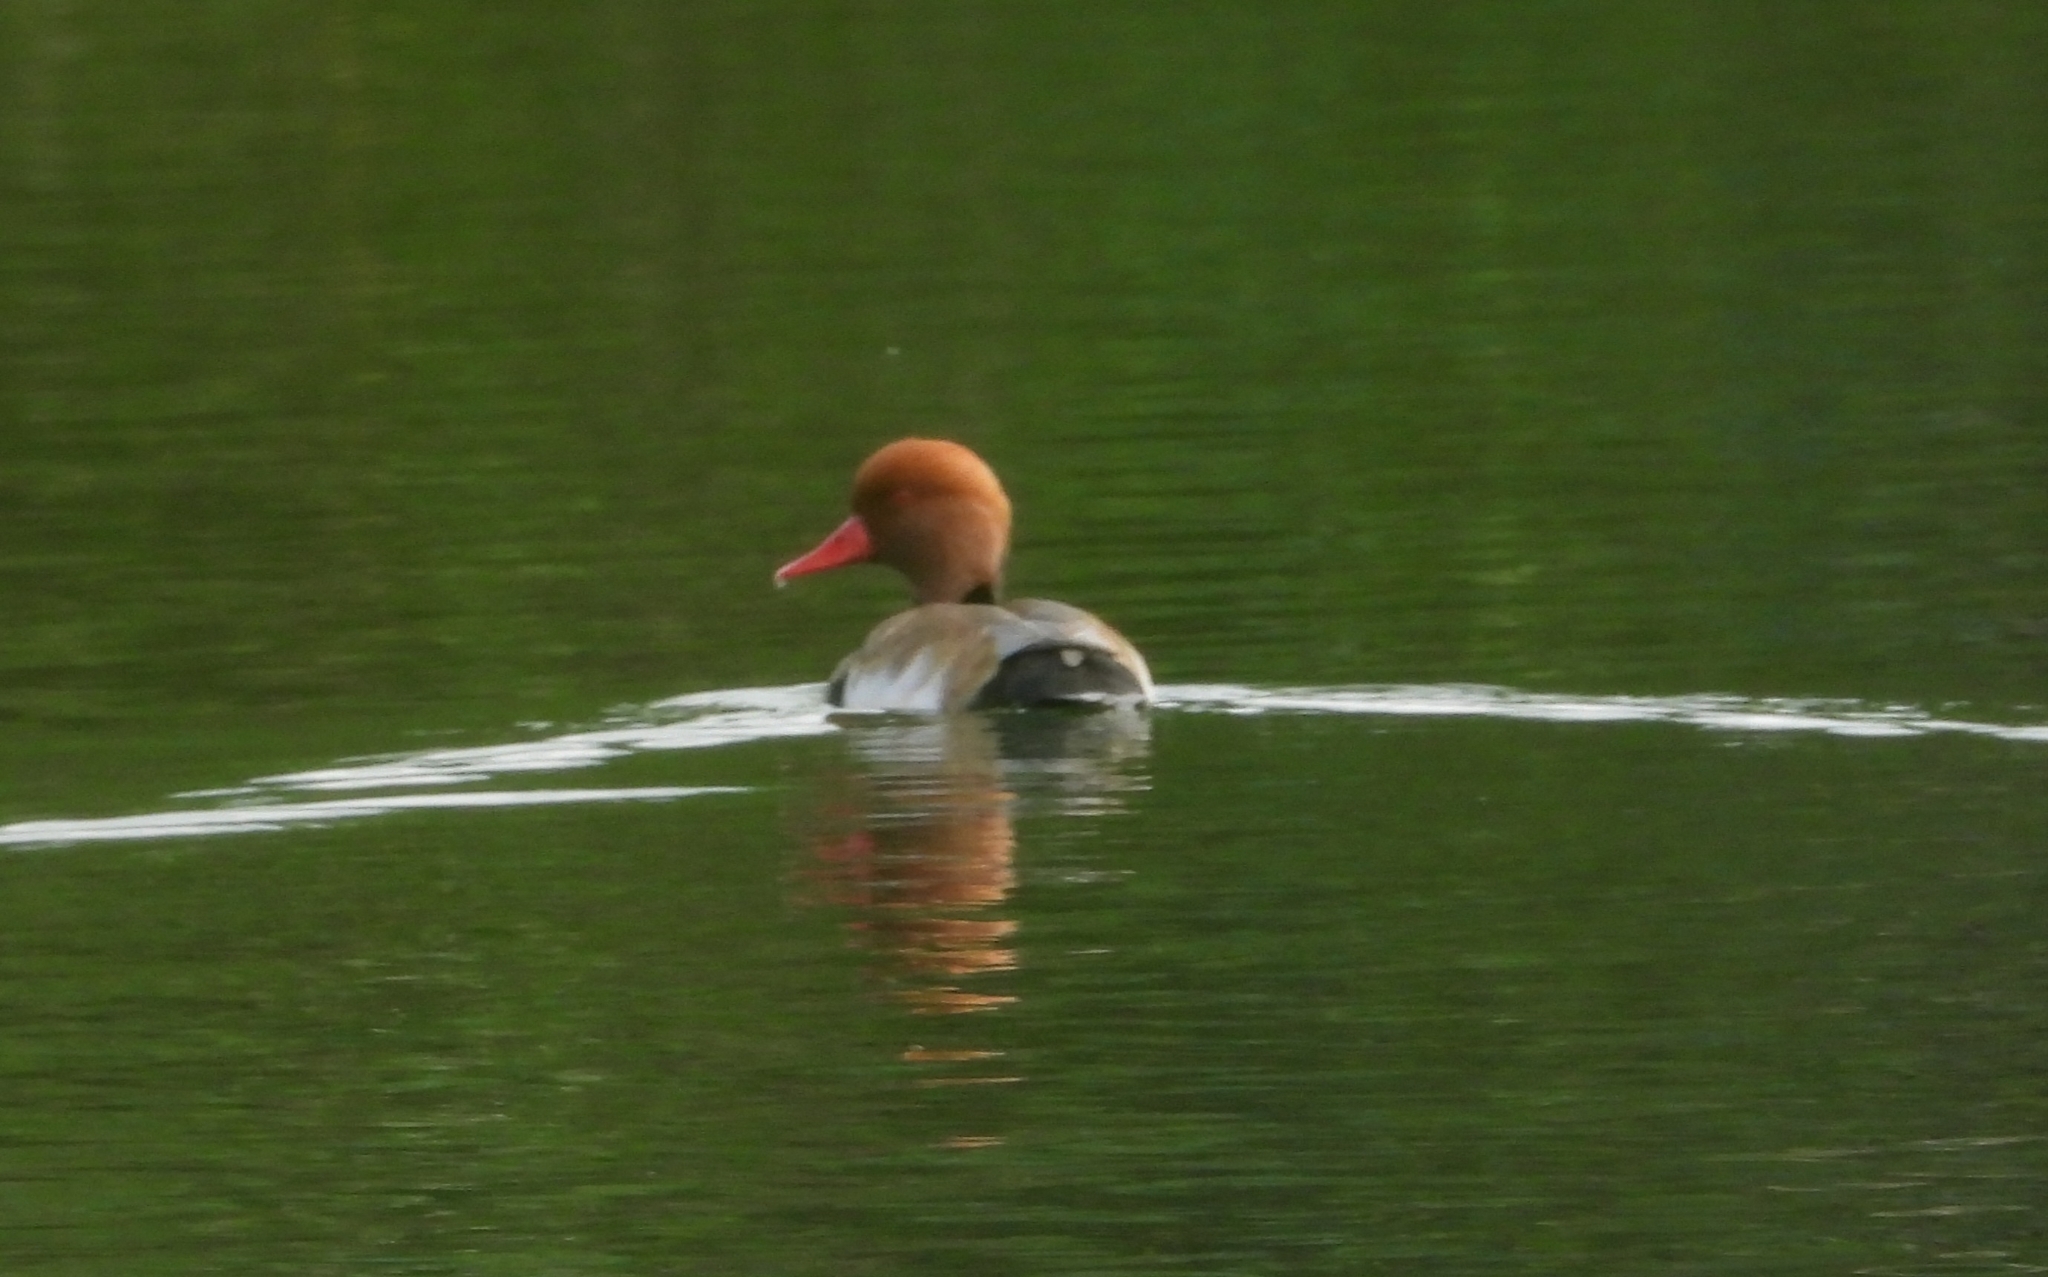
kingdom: Animalia
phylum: Chordata
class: Aves
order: Anseriformes
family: Anatidae
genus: Netta
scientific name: Netta rufina
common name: Red-crested pochard
